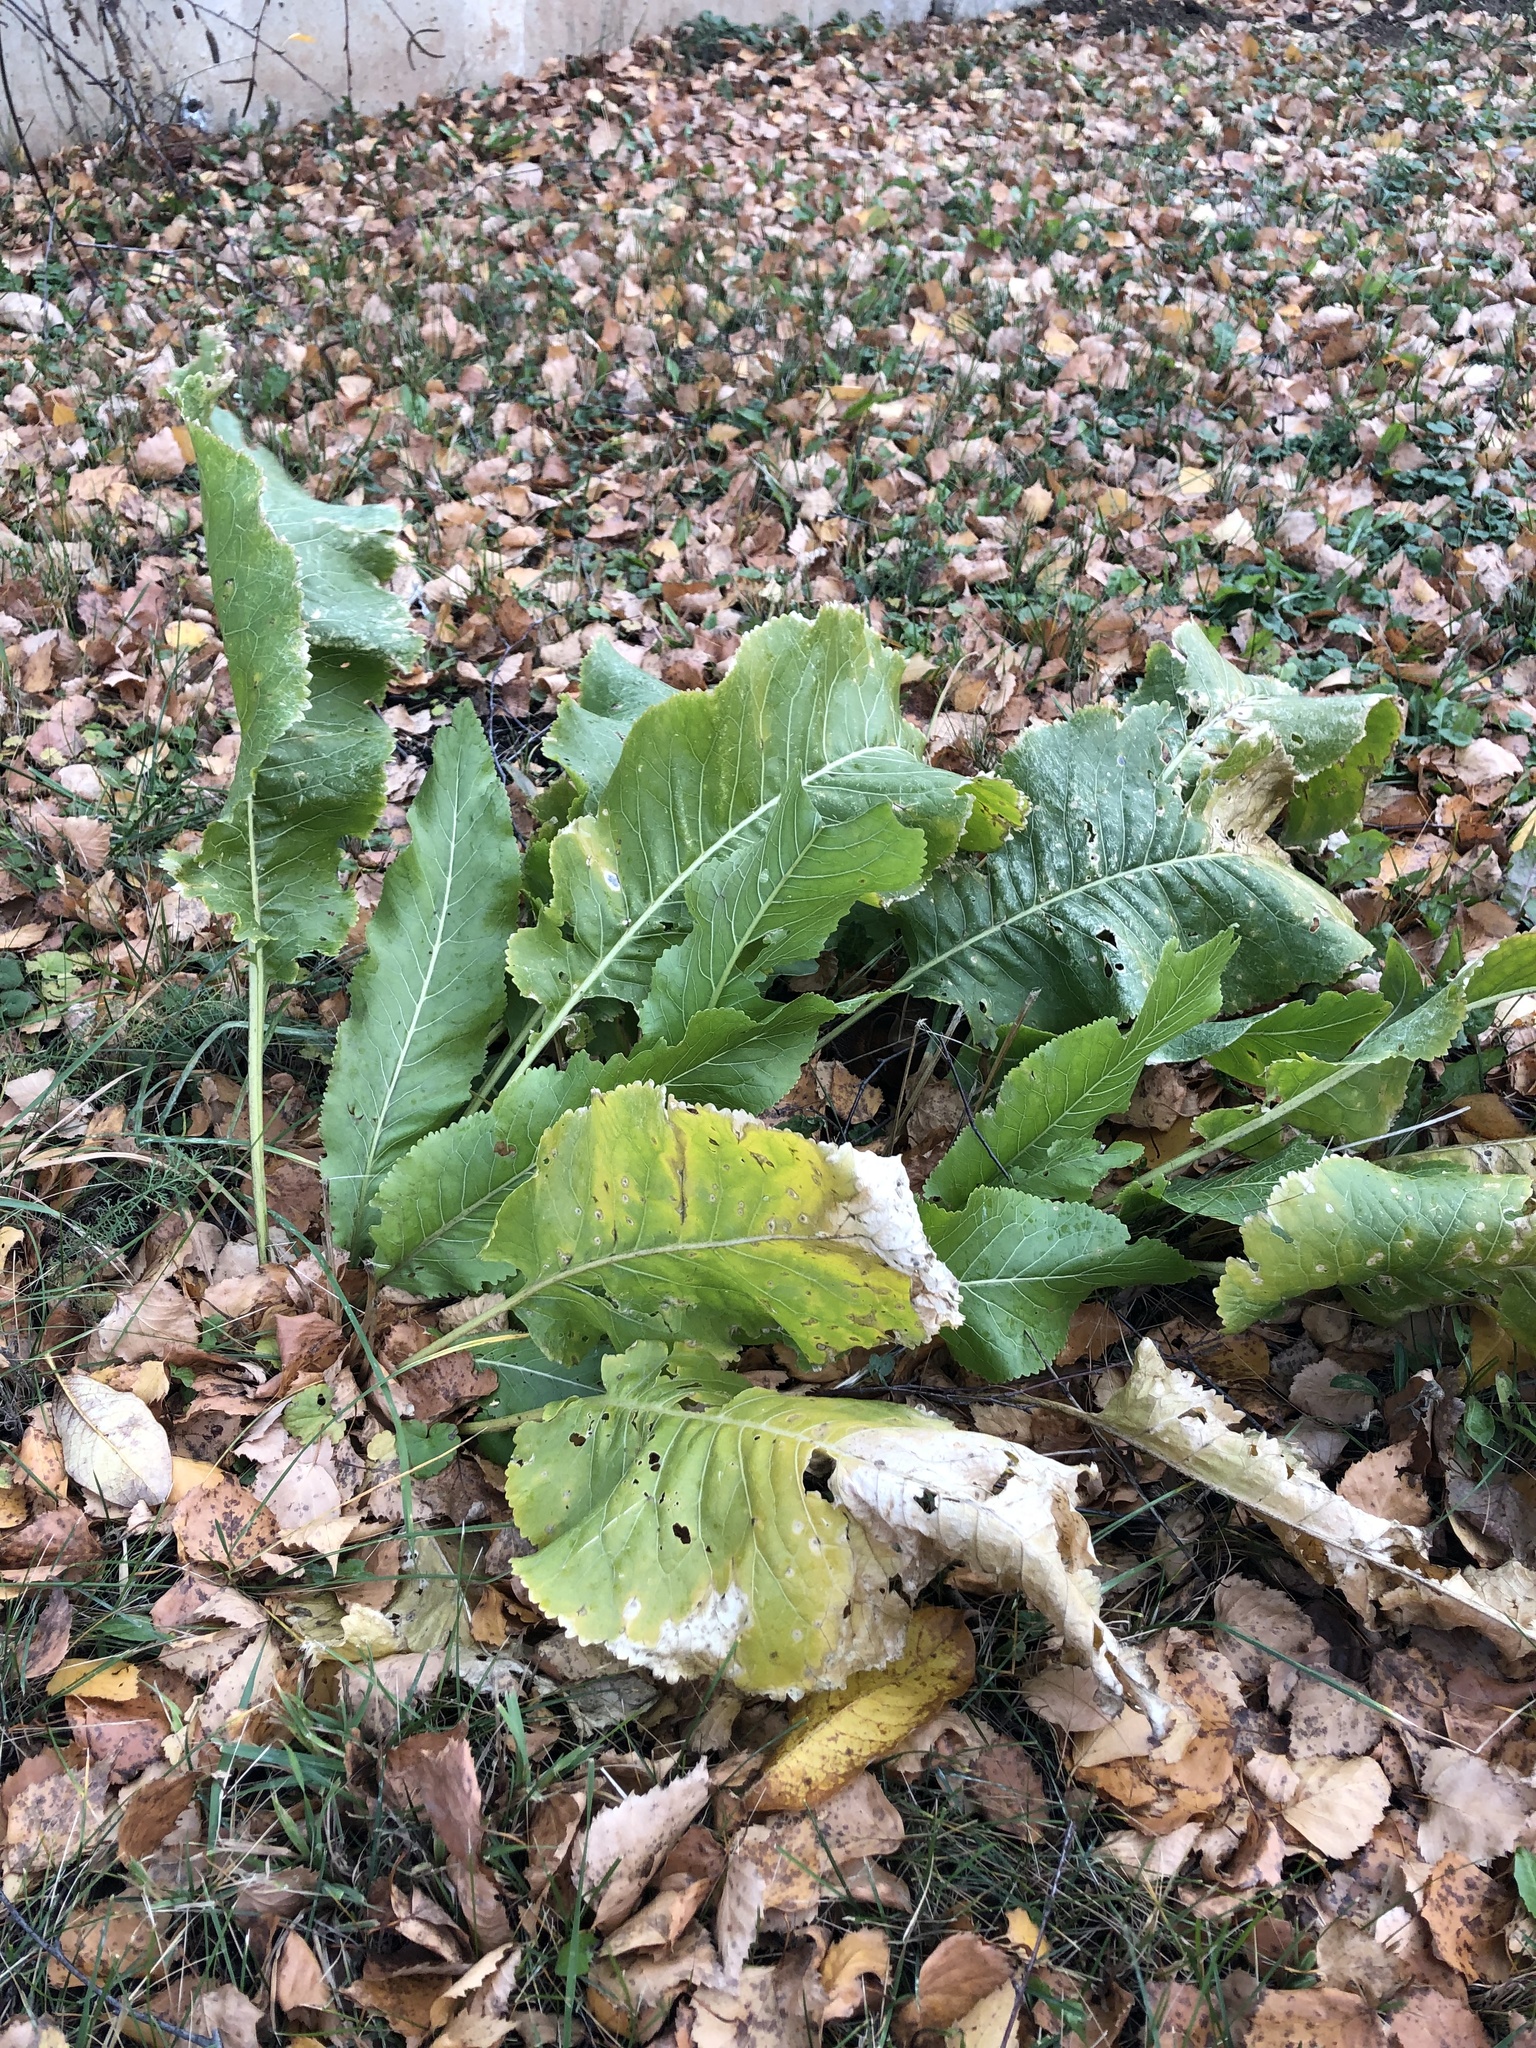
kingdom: Plantae
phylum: Tracheophyta
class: Magnoliopsida
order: Brassicales
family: Brassicaceae
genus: Armoracia
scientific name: Armoracia rusticana
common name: Horseradish
